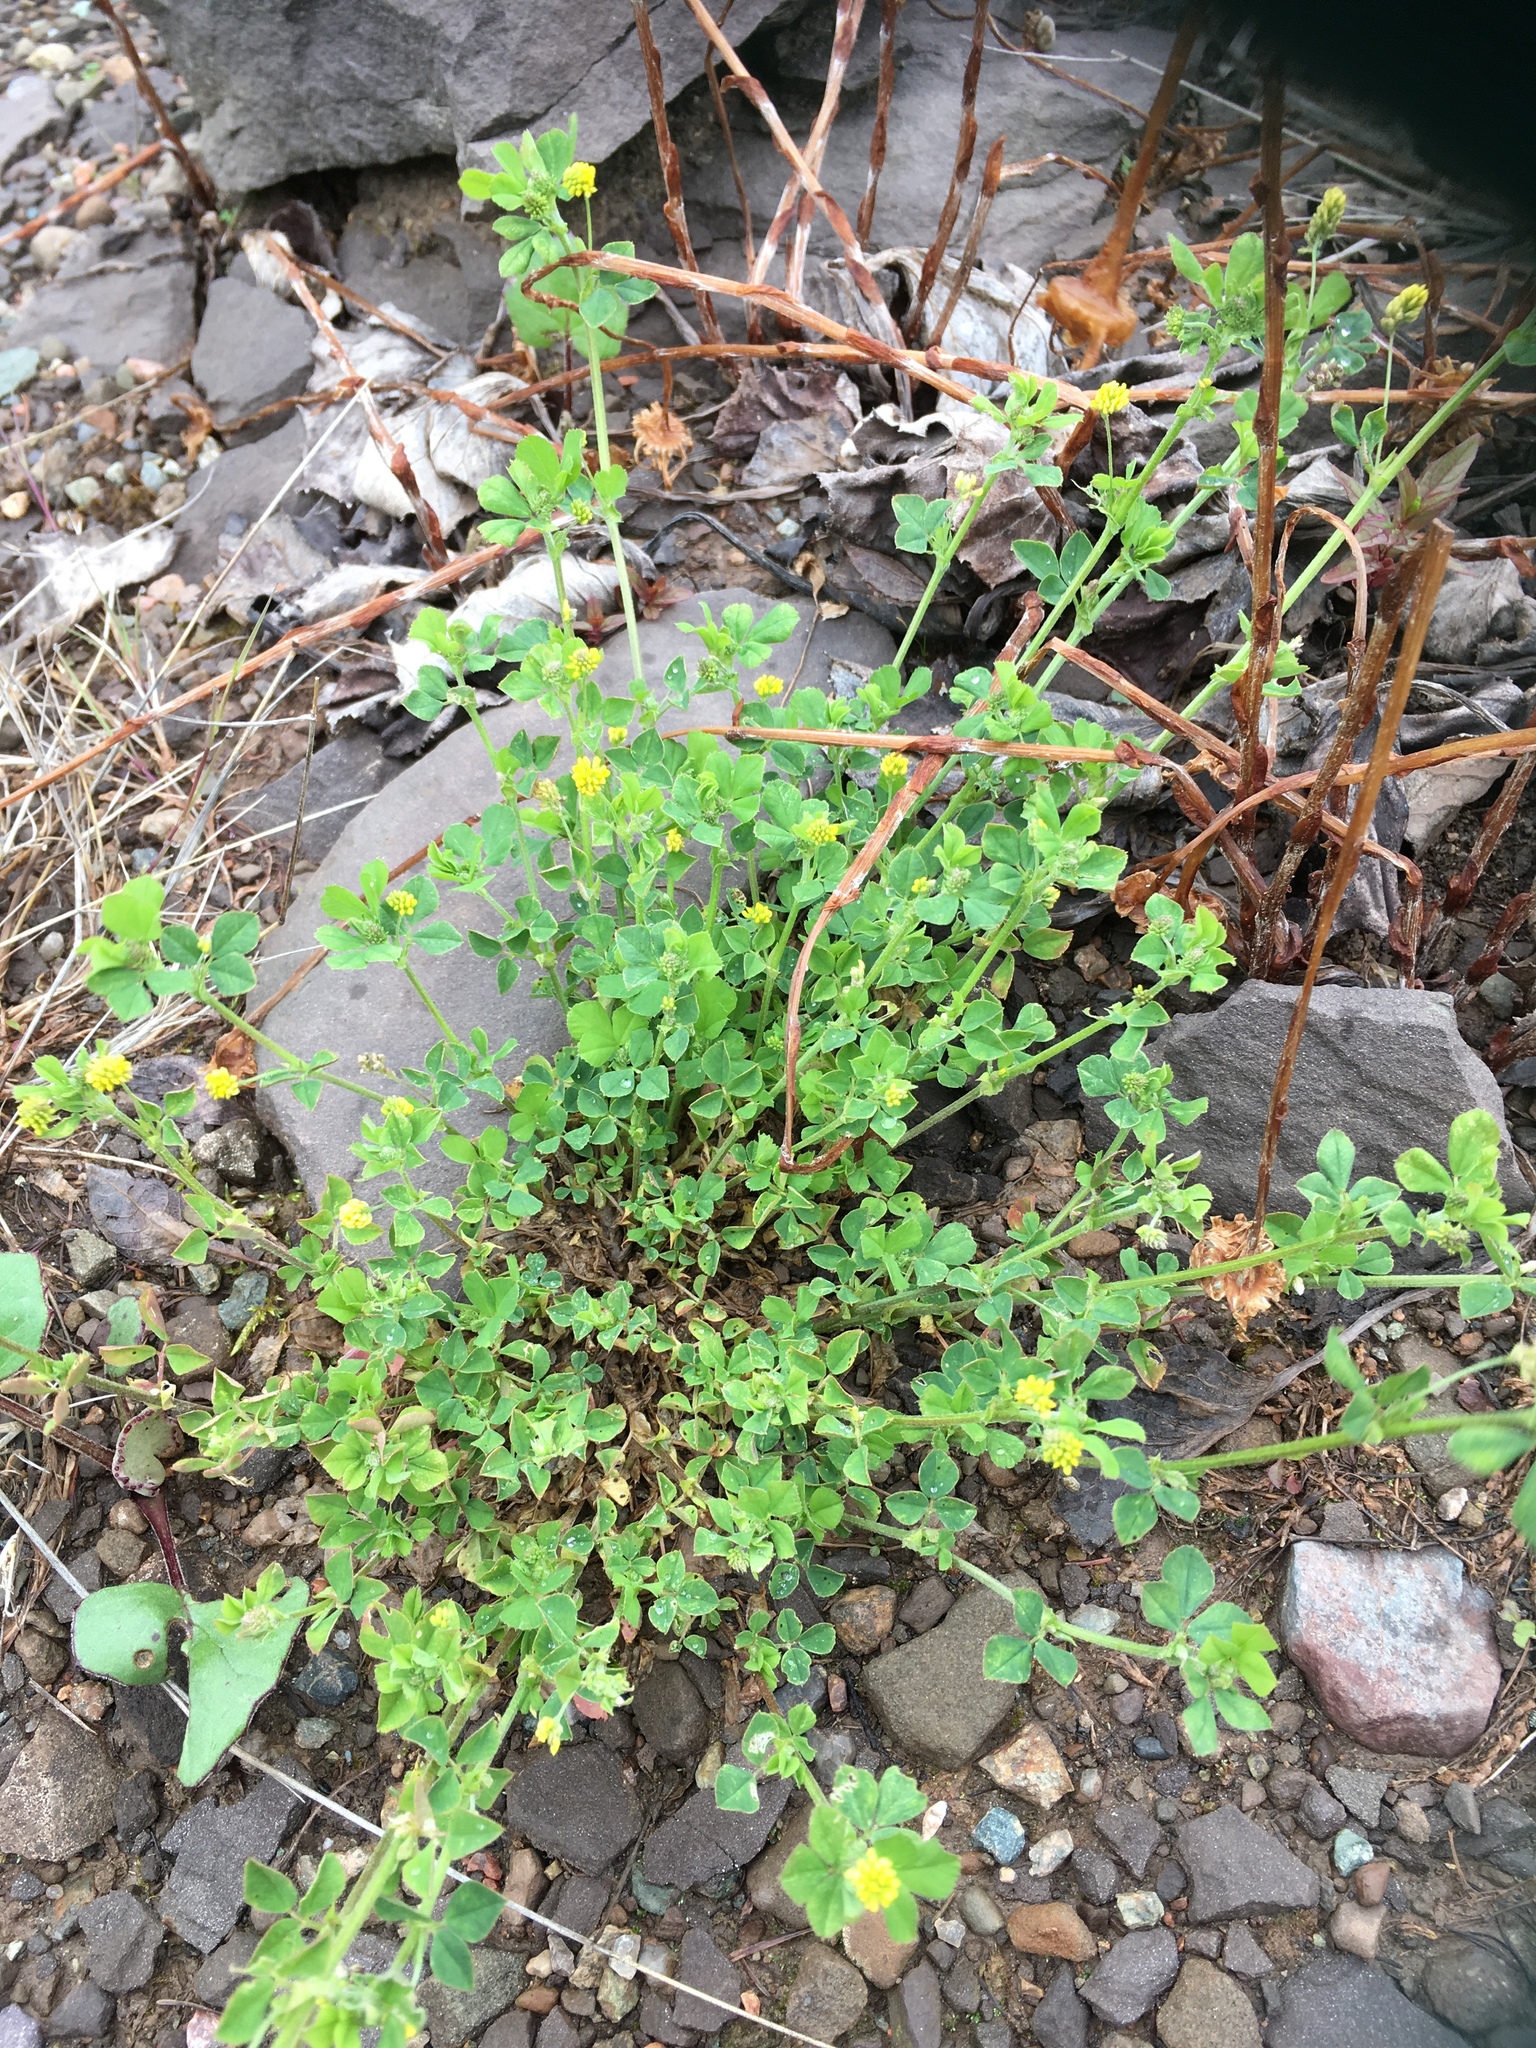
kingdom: Plantae
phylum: Tracheophyta
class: Magnoliopsida
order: Fabales
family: Fabaceae
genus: Medicago
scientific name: Medicago lupulina
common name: Black medick
